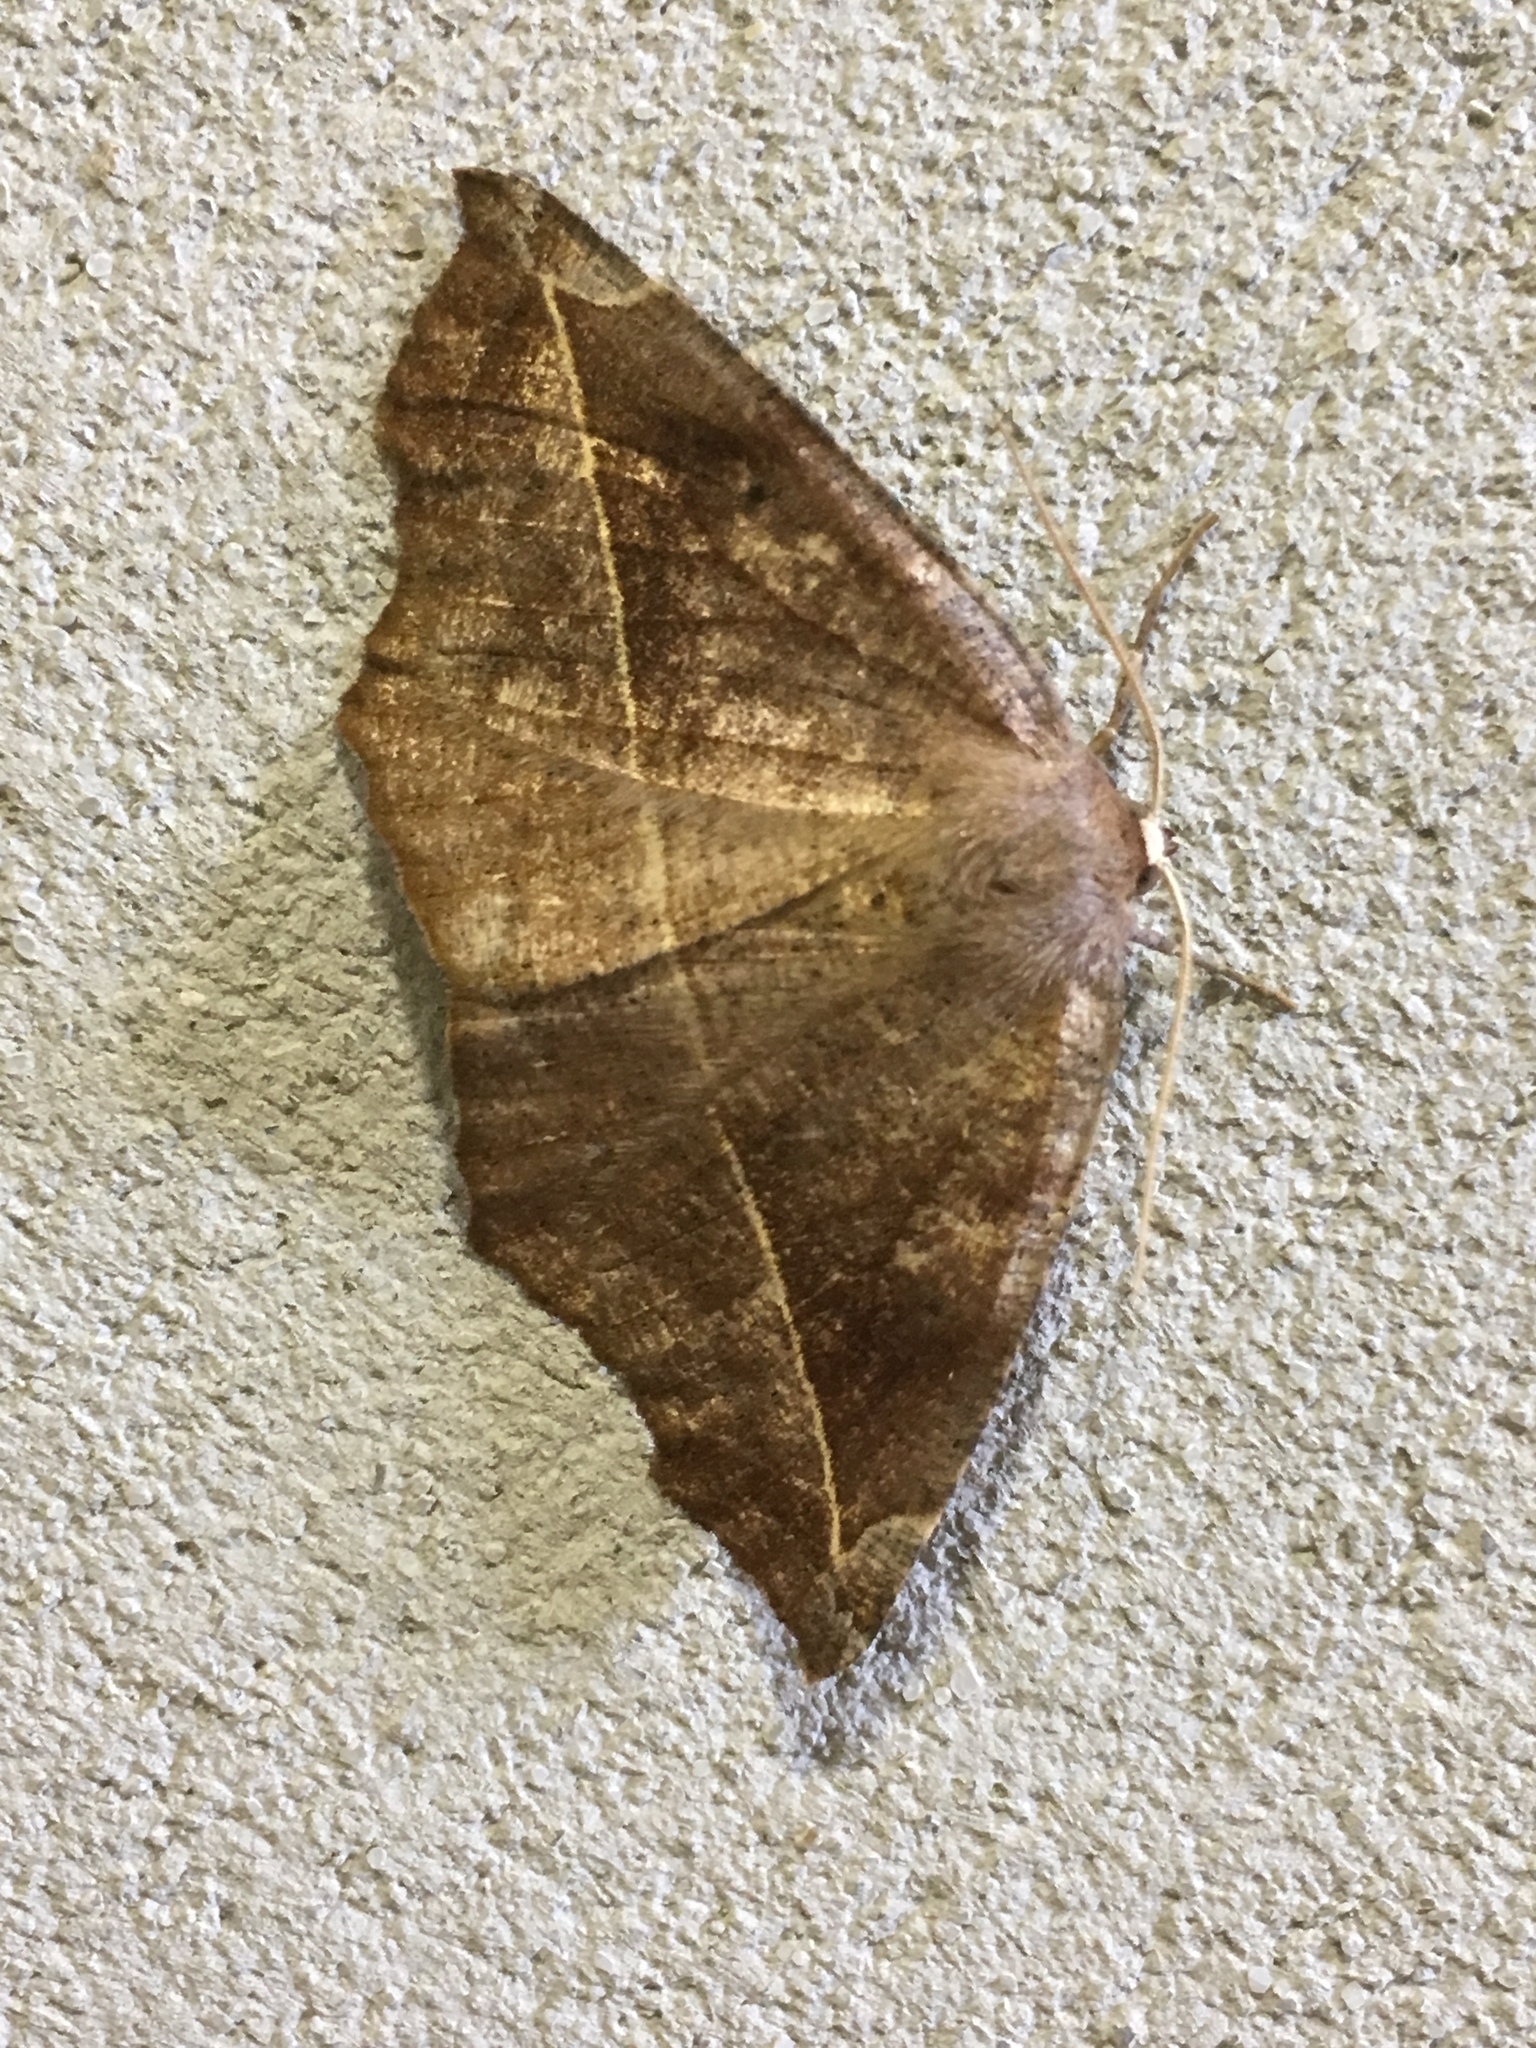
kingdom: Animalia
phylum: Arthropoda
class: Insecta
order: Lepidoptera
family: Geometridae
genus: Eutrapela
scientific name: Eutrapela clemataria
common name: Curved-toothed geometer
